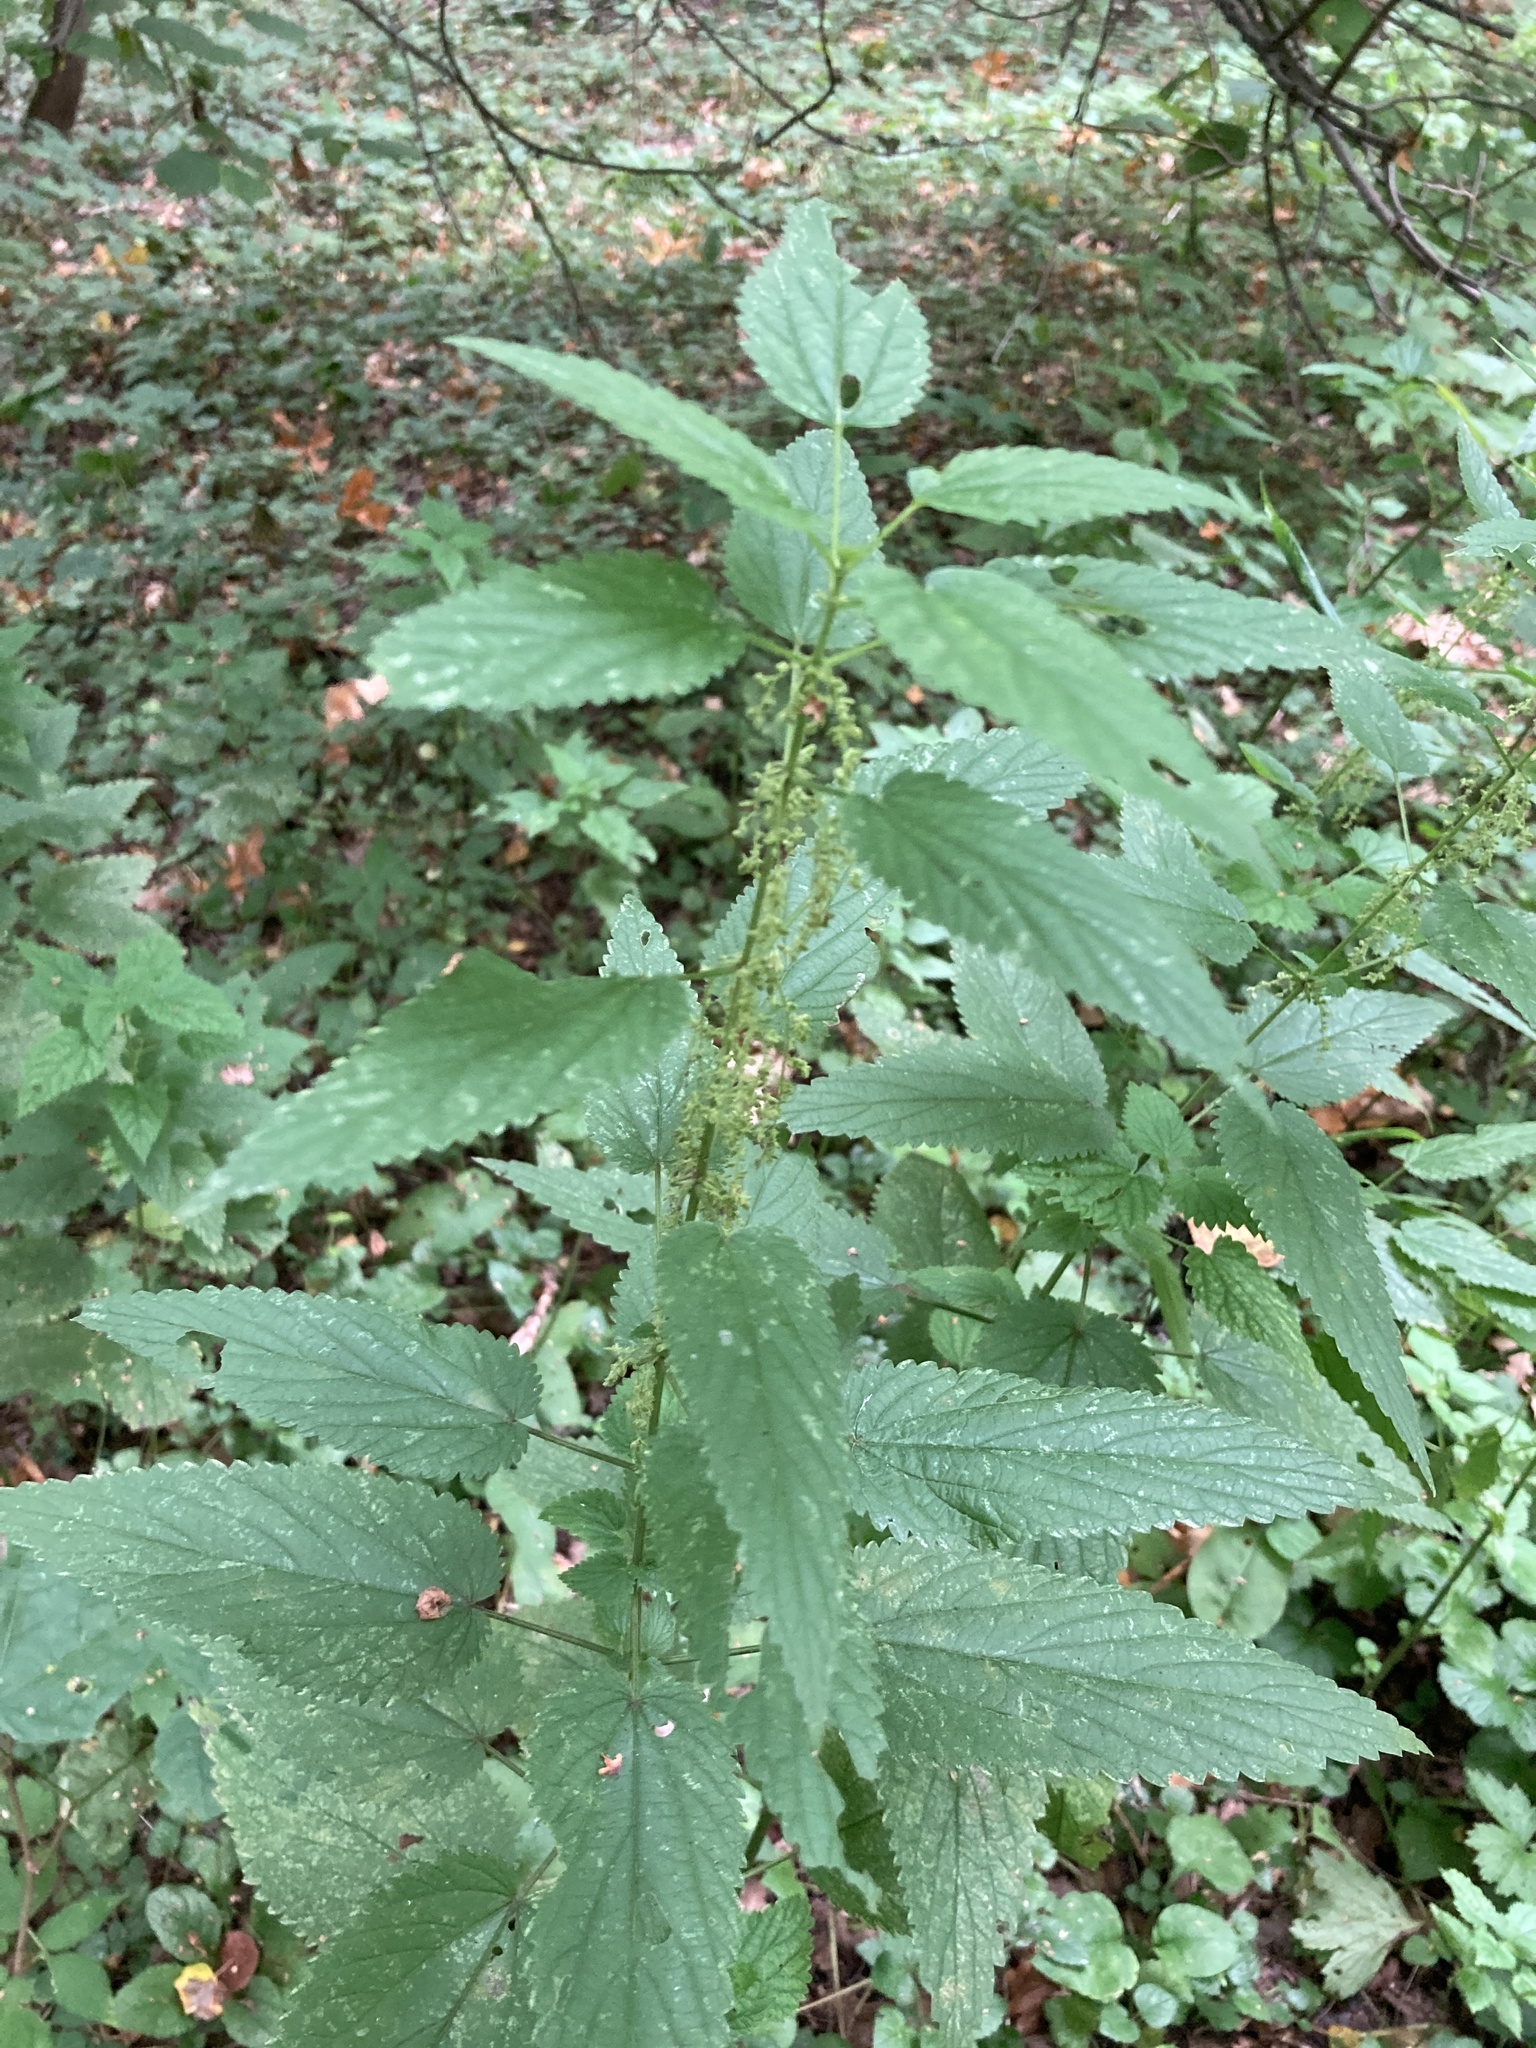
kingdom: Plantae
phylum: Tracheophyta
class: Magnoliopsida
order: Rosales
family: Urticaceae
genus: Urtica
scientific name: Urtica dioica
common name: Common nettle
